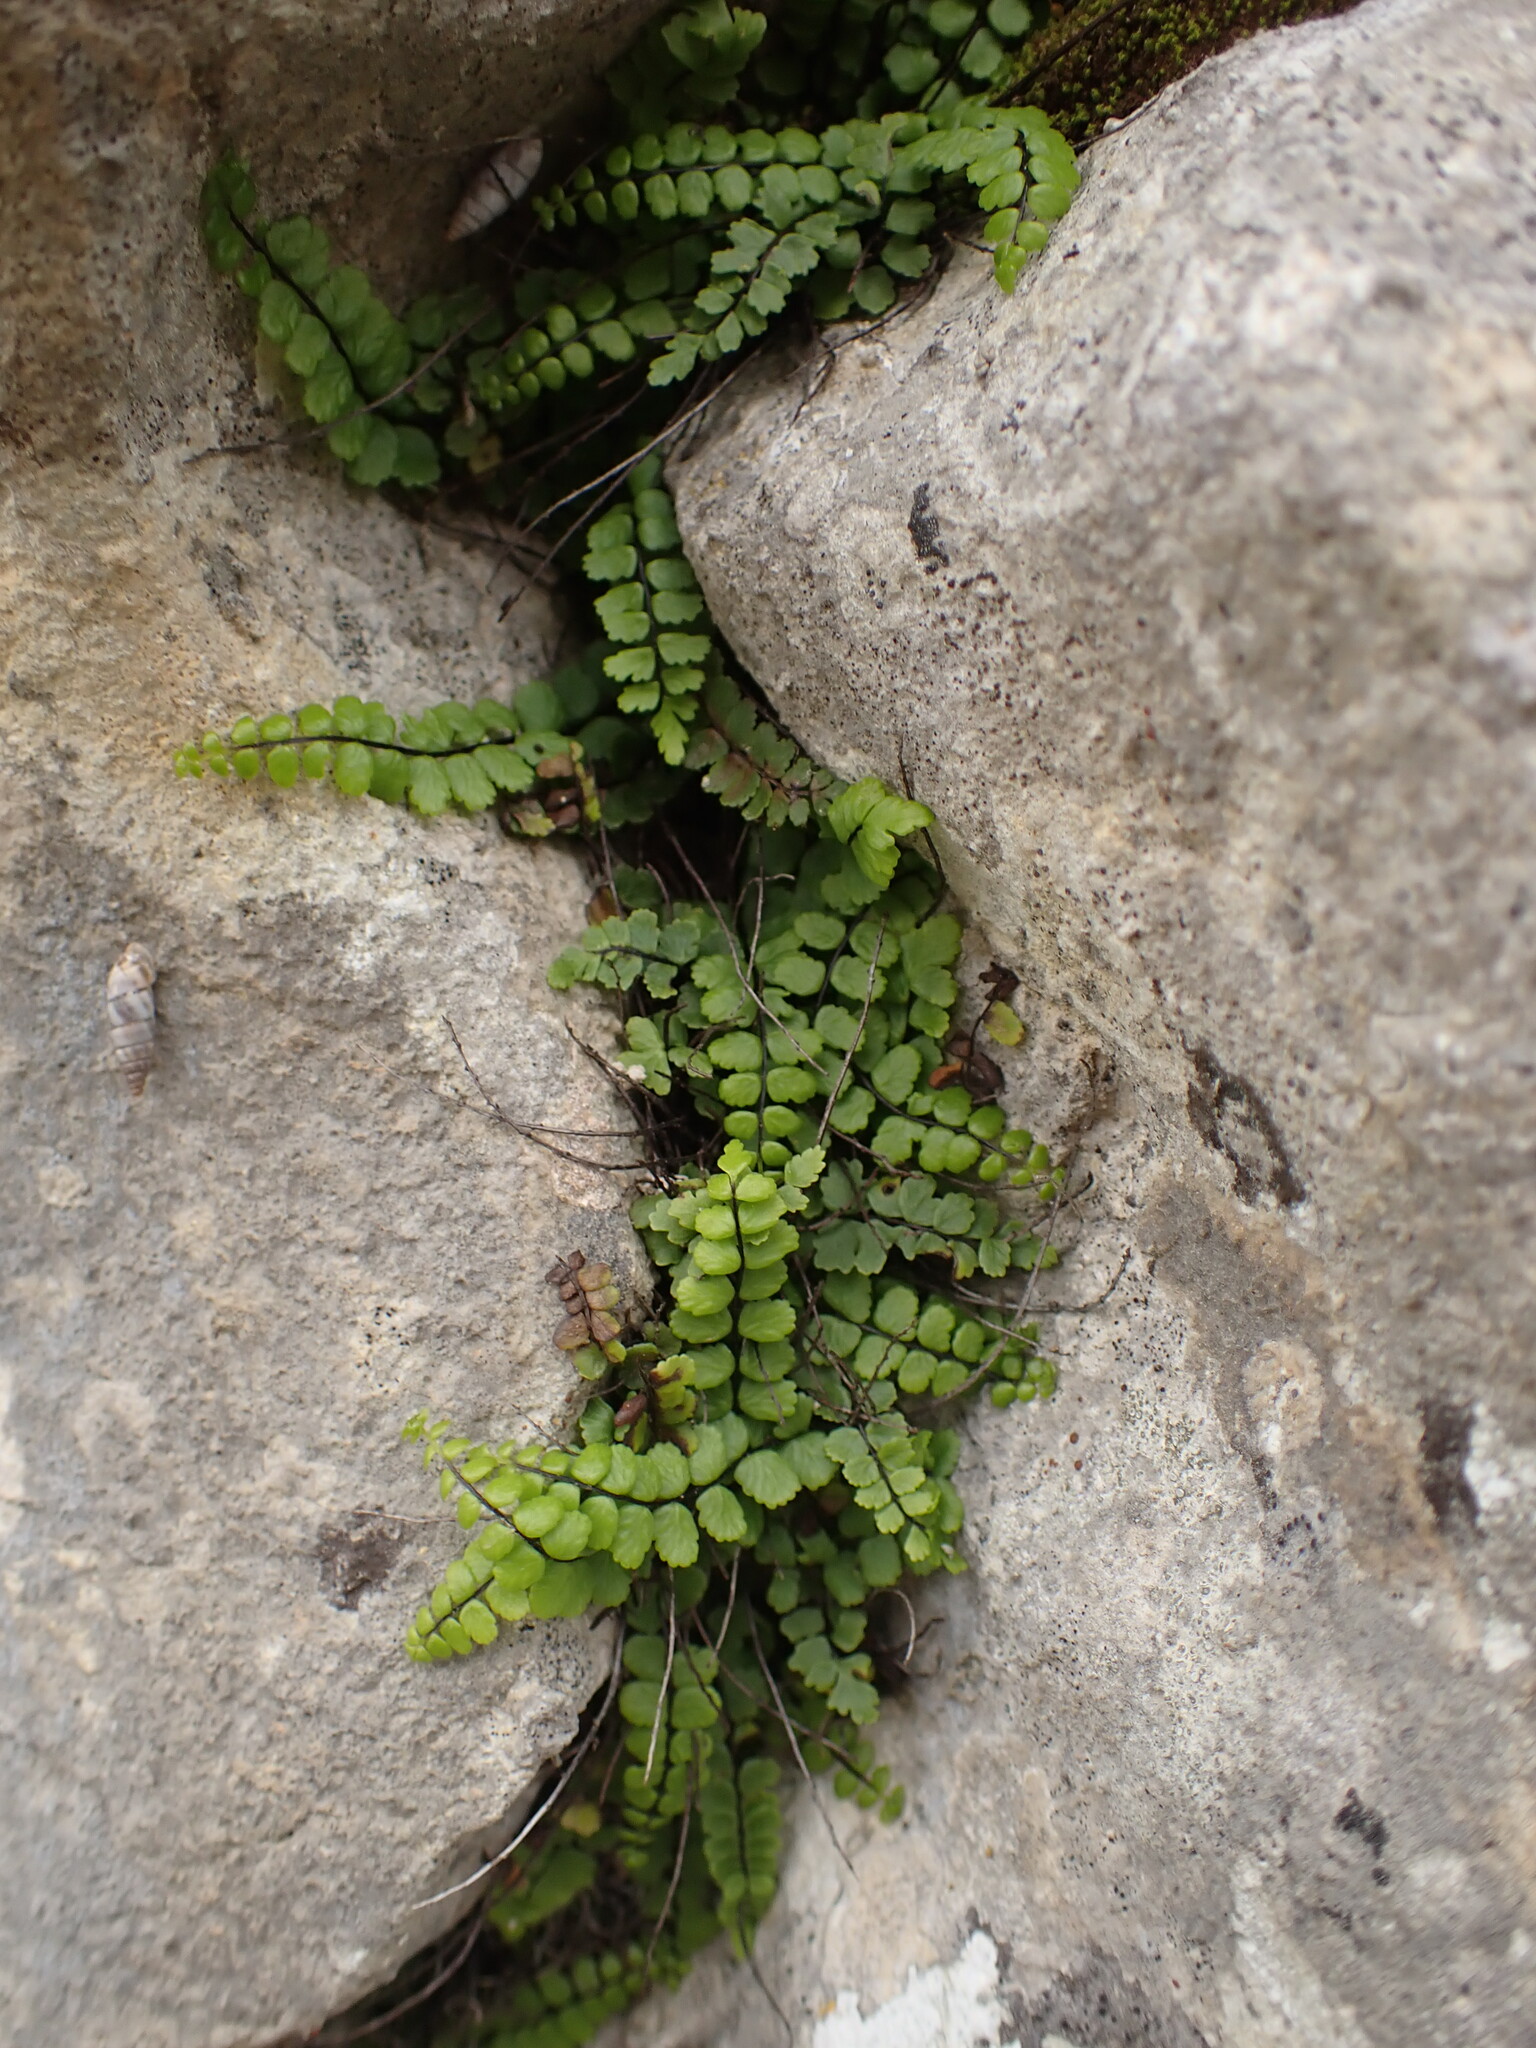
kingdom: Plantae
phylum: Tracheophyta
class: Polypodiopsida
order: Polypodiales
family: Aspleniaceae
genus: Asplenium
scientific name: Asplenium trichomanes
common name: Maidenhair spleenwort
